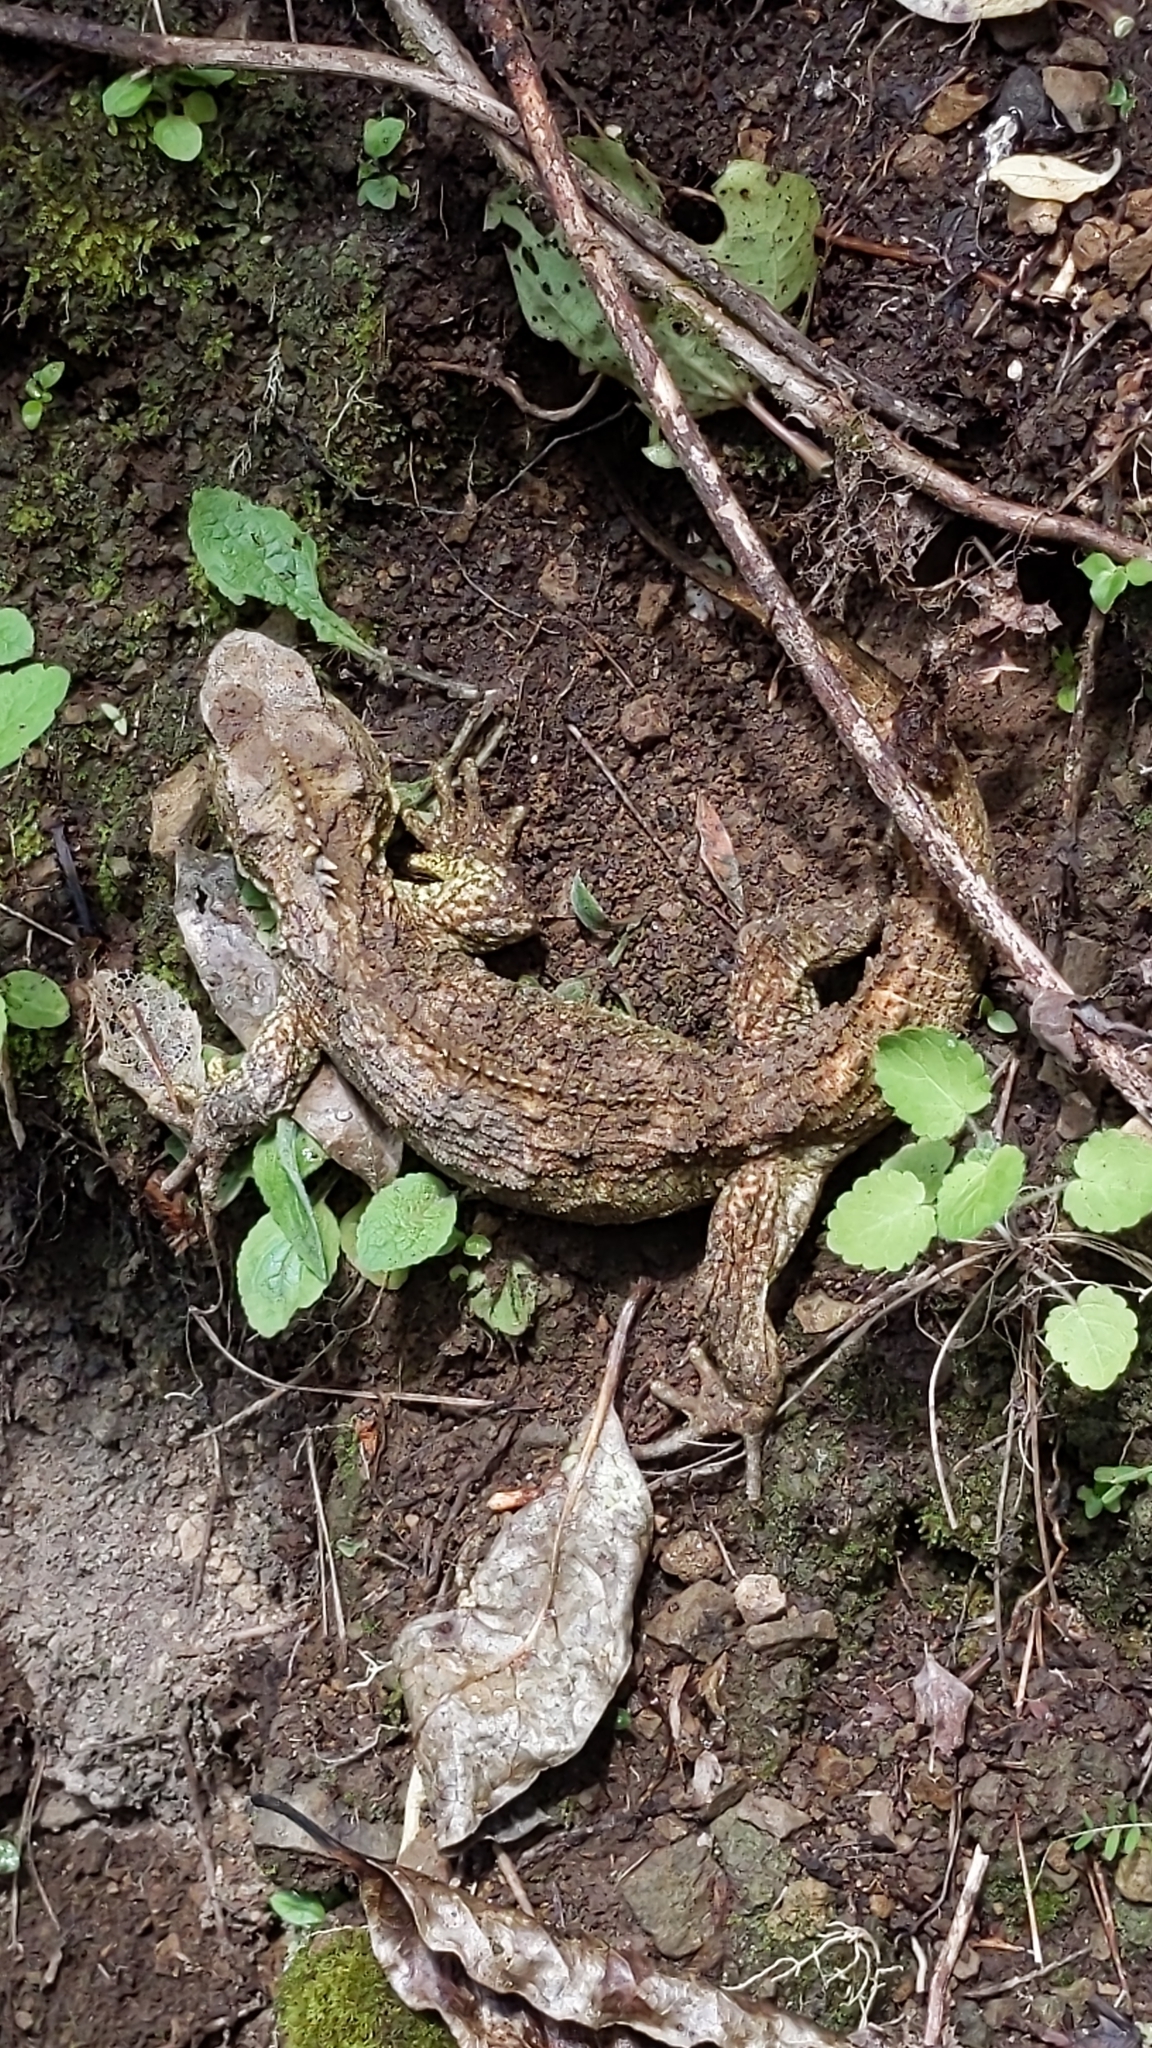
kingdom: Animalia
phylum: Chordata
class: Sphenodontia
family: Sphenodontidae
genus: Sphenodon
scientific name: Sphenodon punctatus
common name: Tuatara
